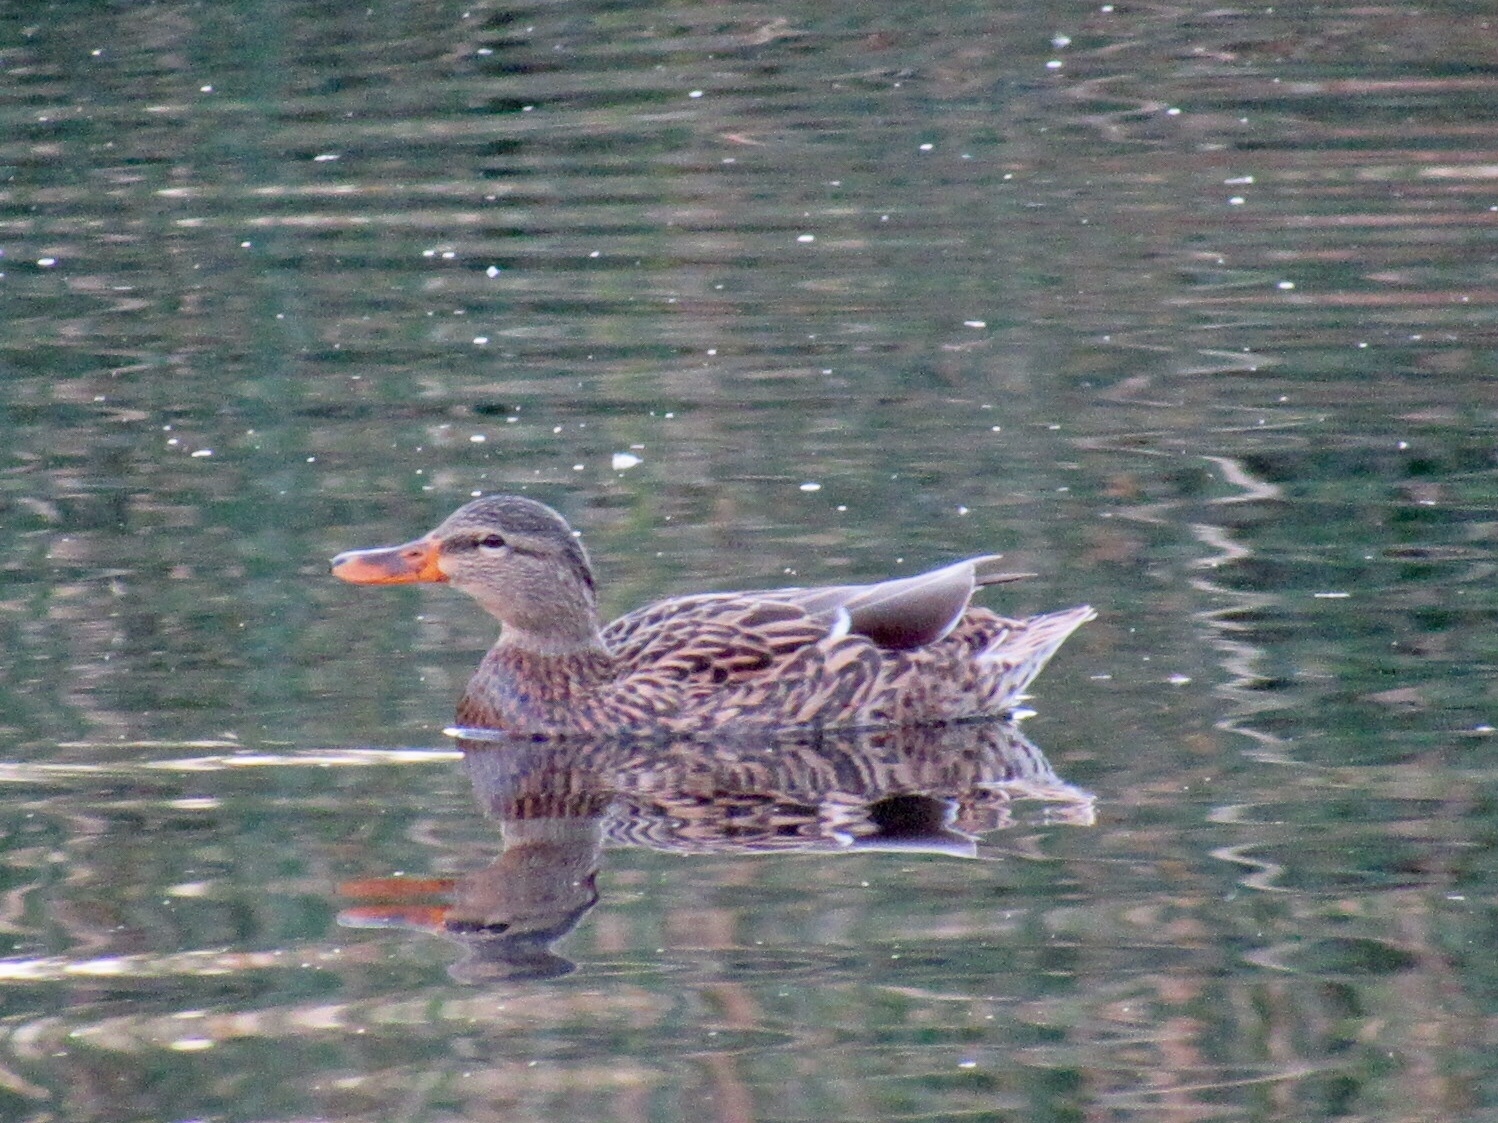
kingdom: Animalia
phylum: Chordata
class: Aves
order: Anseriformes
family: Anatidae
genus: Anas
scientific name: Anas platyrhynchos
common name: Mallard
